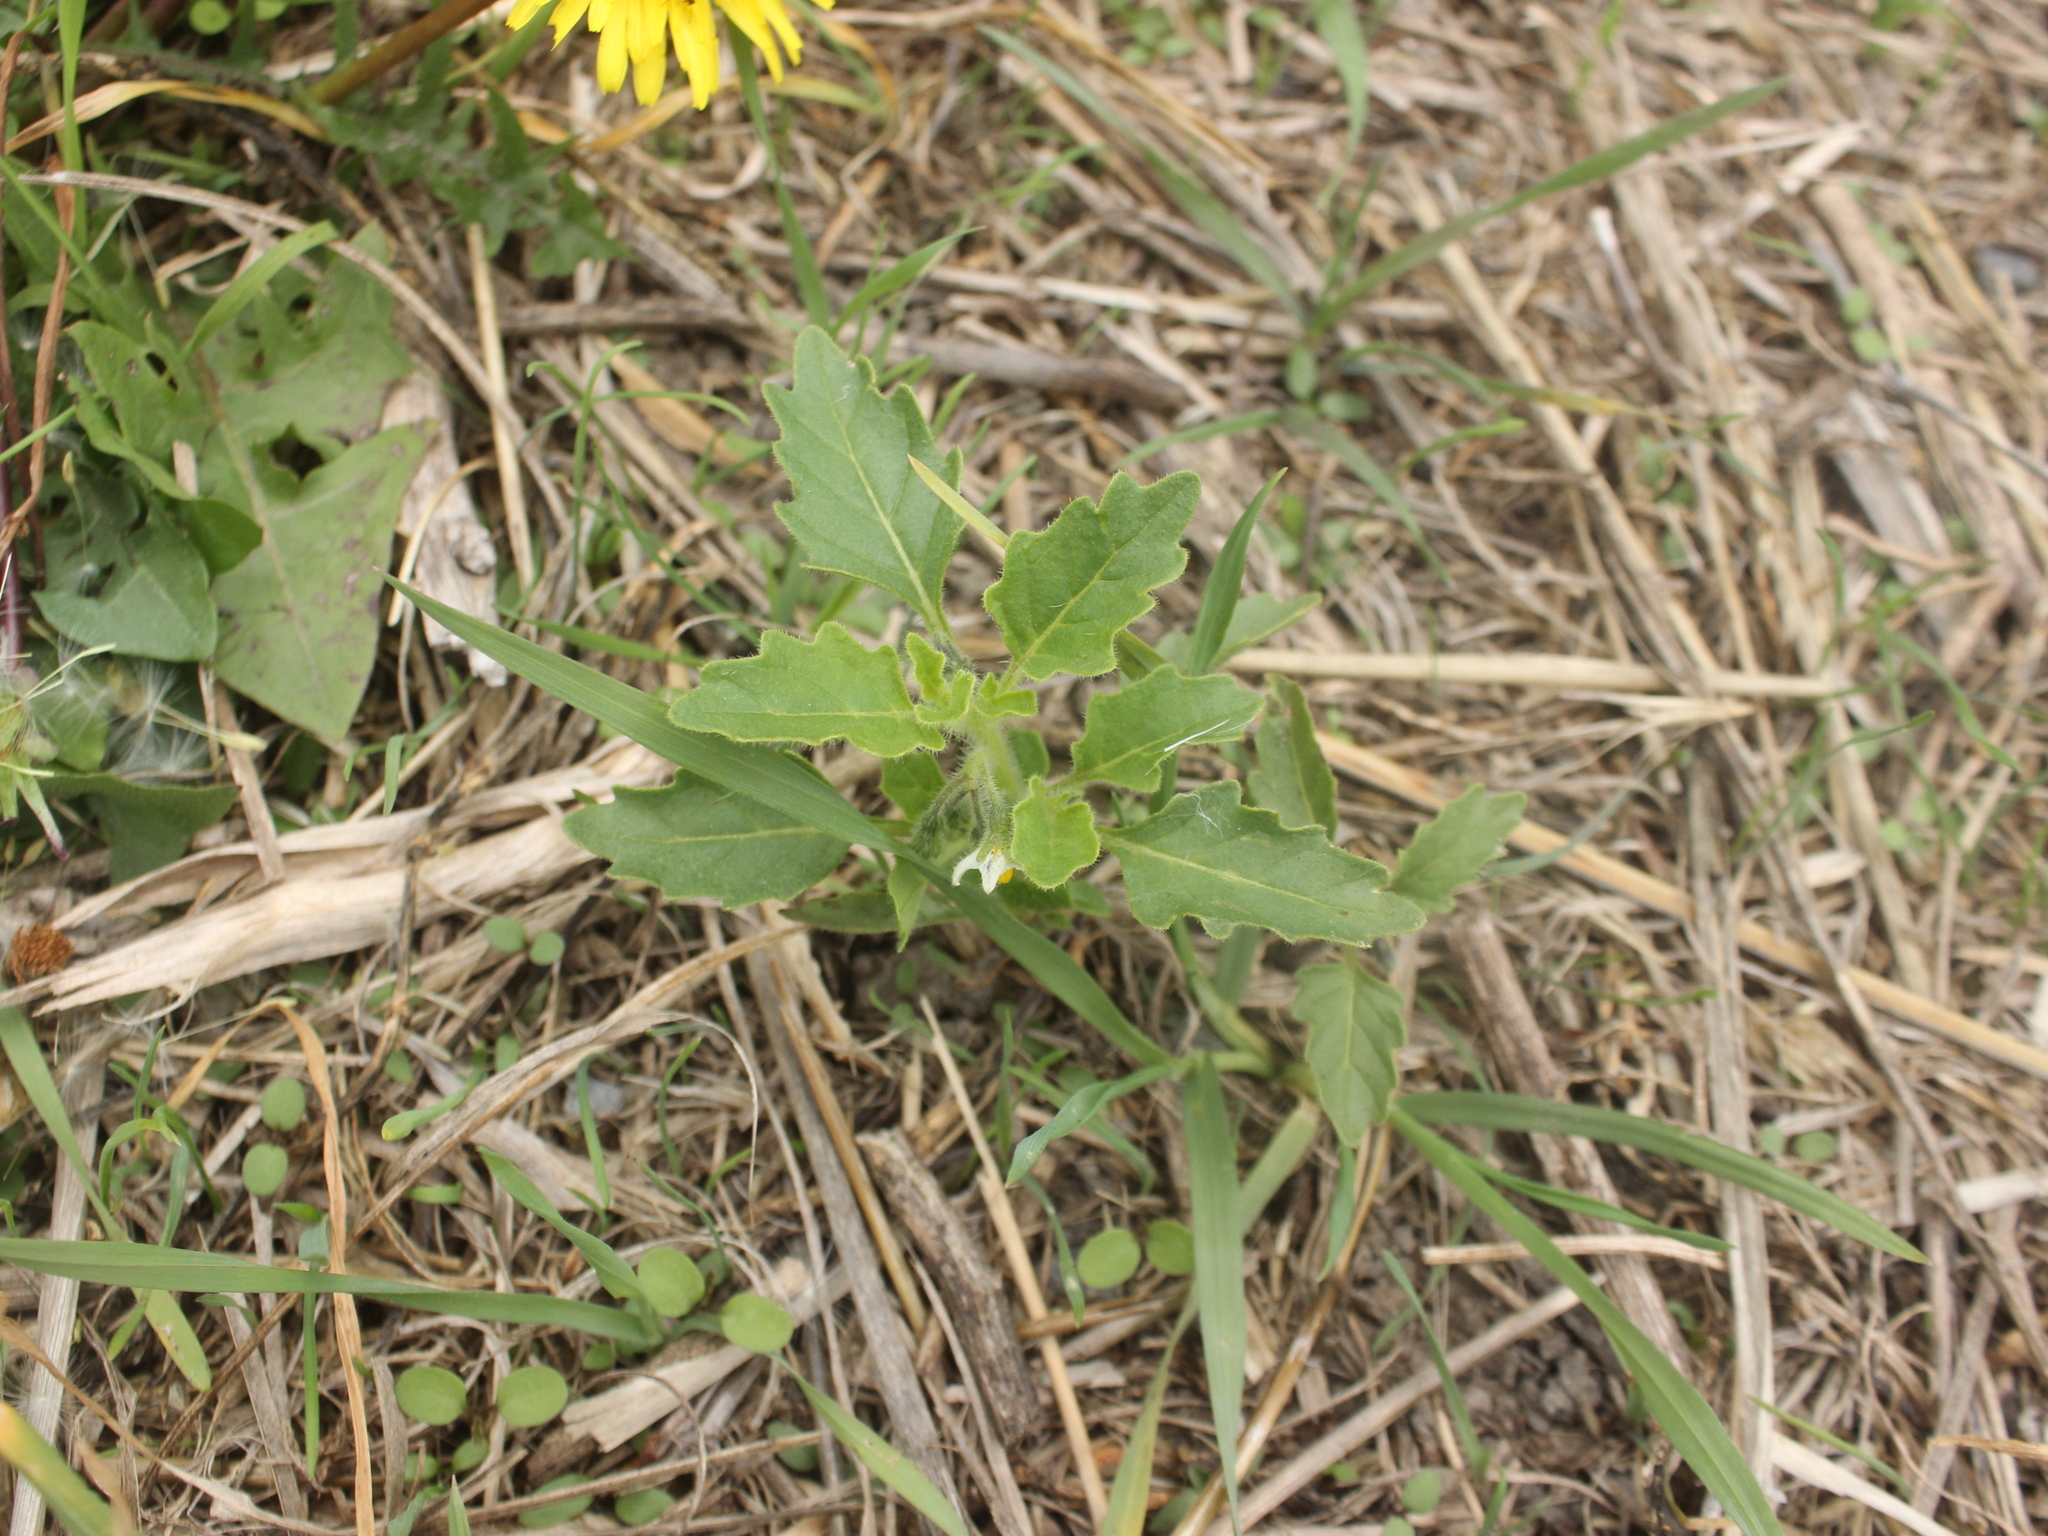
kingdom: Plantae
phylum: Tracheophyta
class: Magnoliopsida
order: Solanales
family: Solanaceae
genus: Solanum
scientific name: Solanum nitidibaccatum
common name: Hairy nightshade
